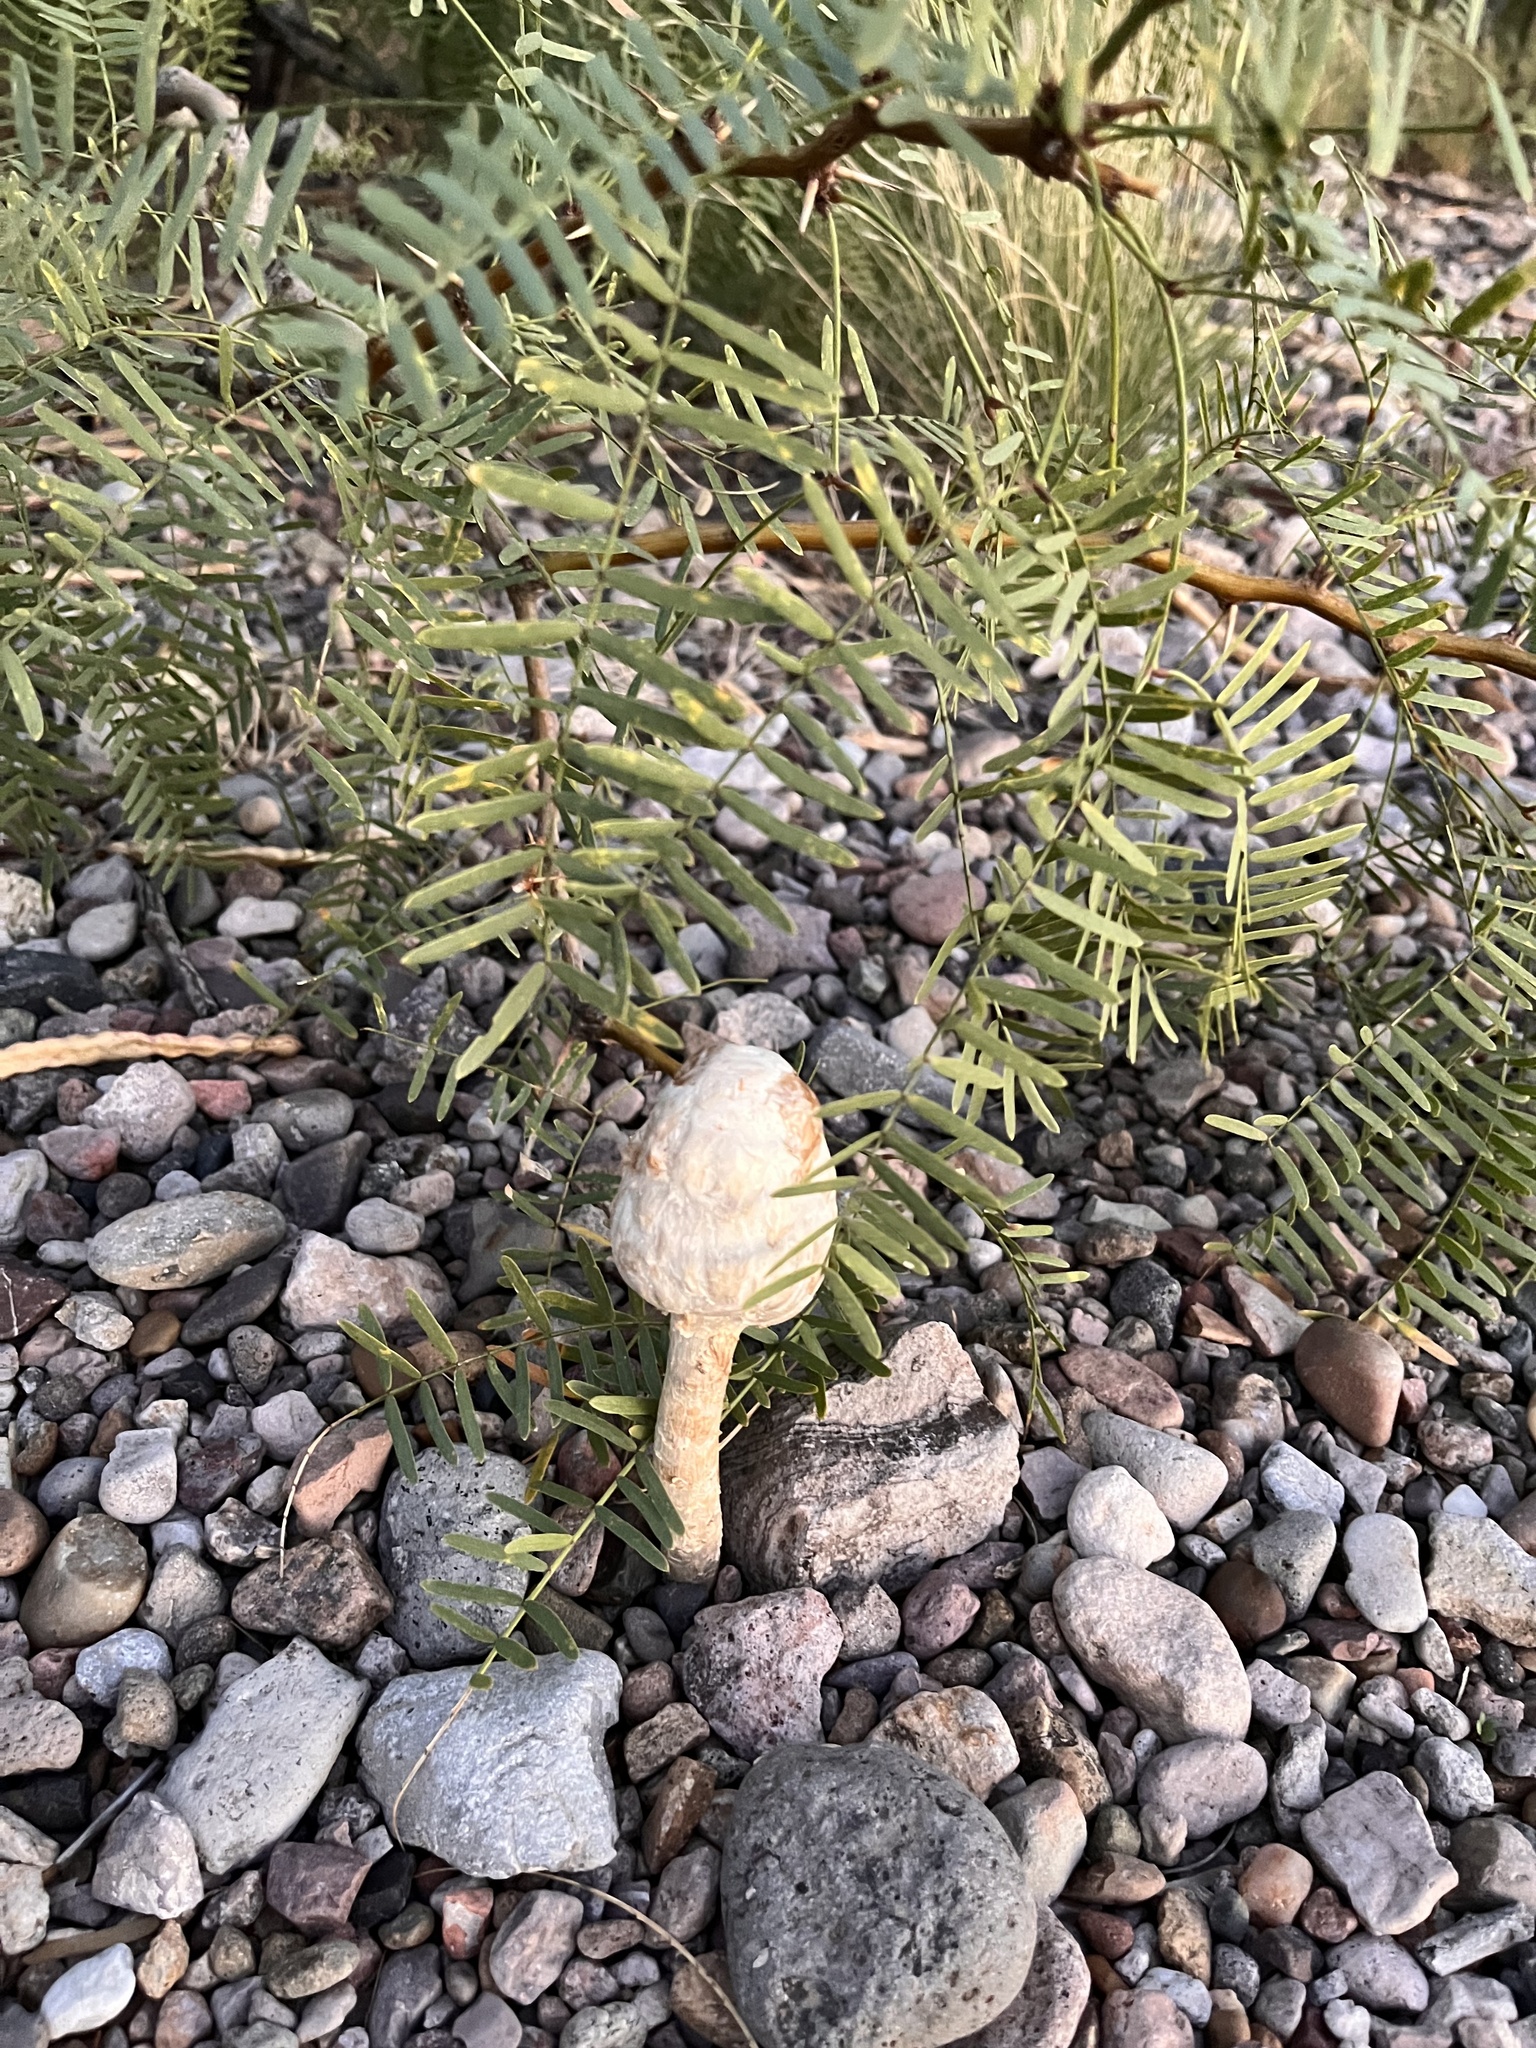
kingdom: Plantae
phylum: Tracheophyta
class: Magnoliopsida
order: Fabales
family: Fabaceae
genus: Prosopis
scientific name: Prosopis glandulosa
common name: Honey mesquite
